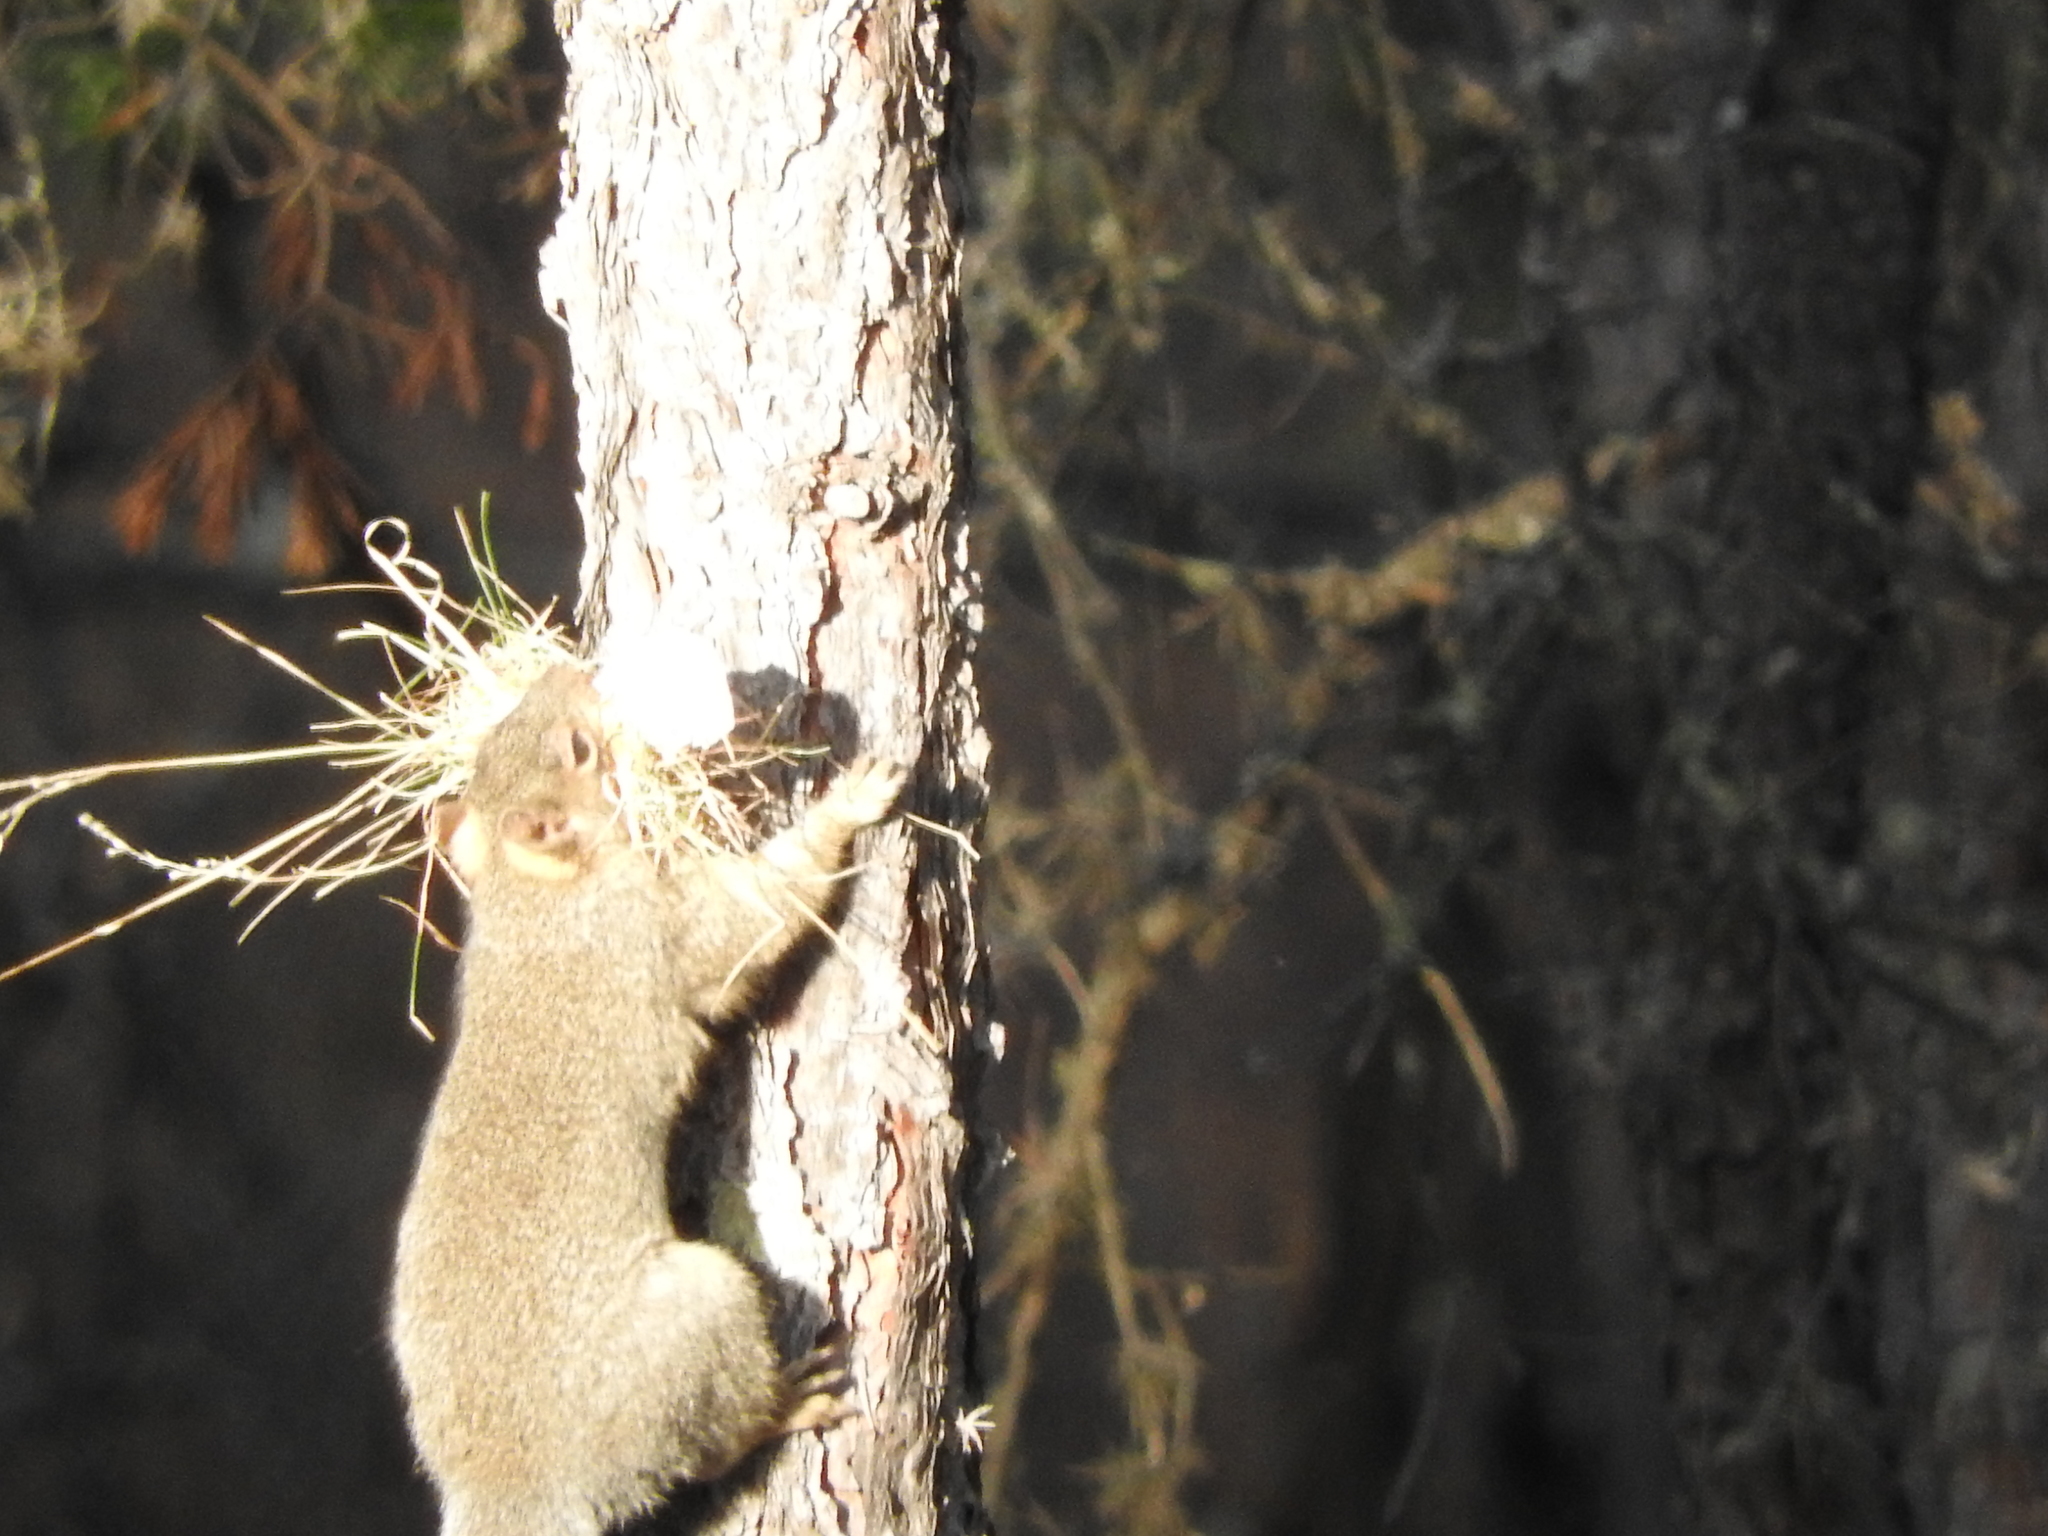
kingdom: Animalia
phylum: Chordata
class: Mammalia
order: Rodentia
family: Sciuridae
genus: Sciurus
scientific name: Sciurus oculatus
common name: Peters's squirrel
